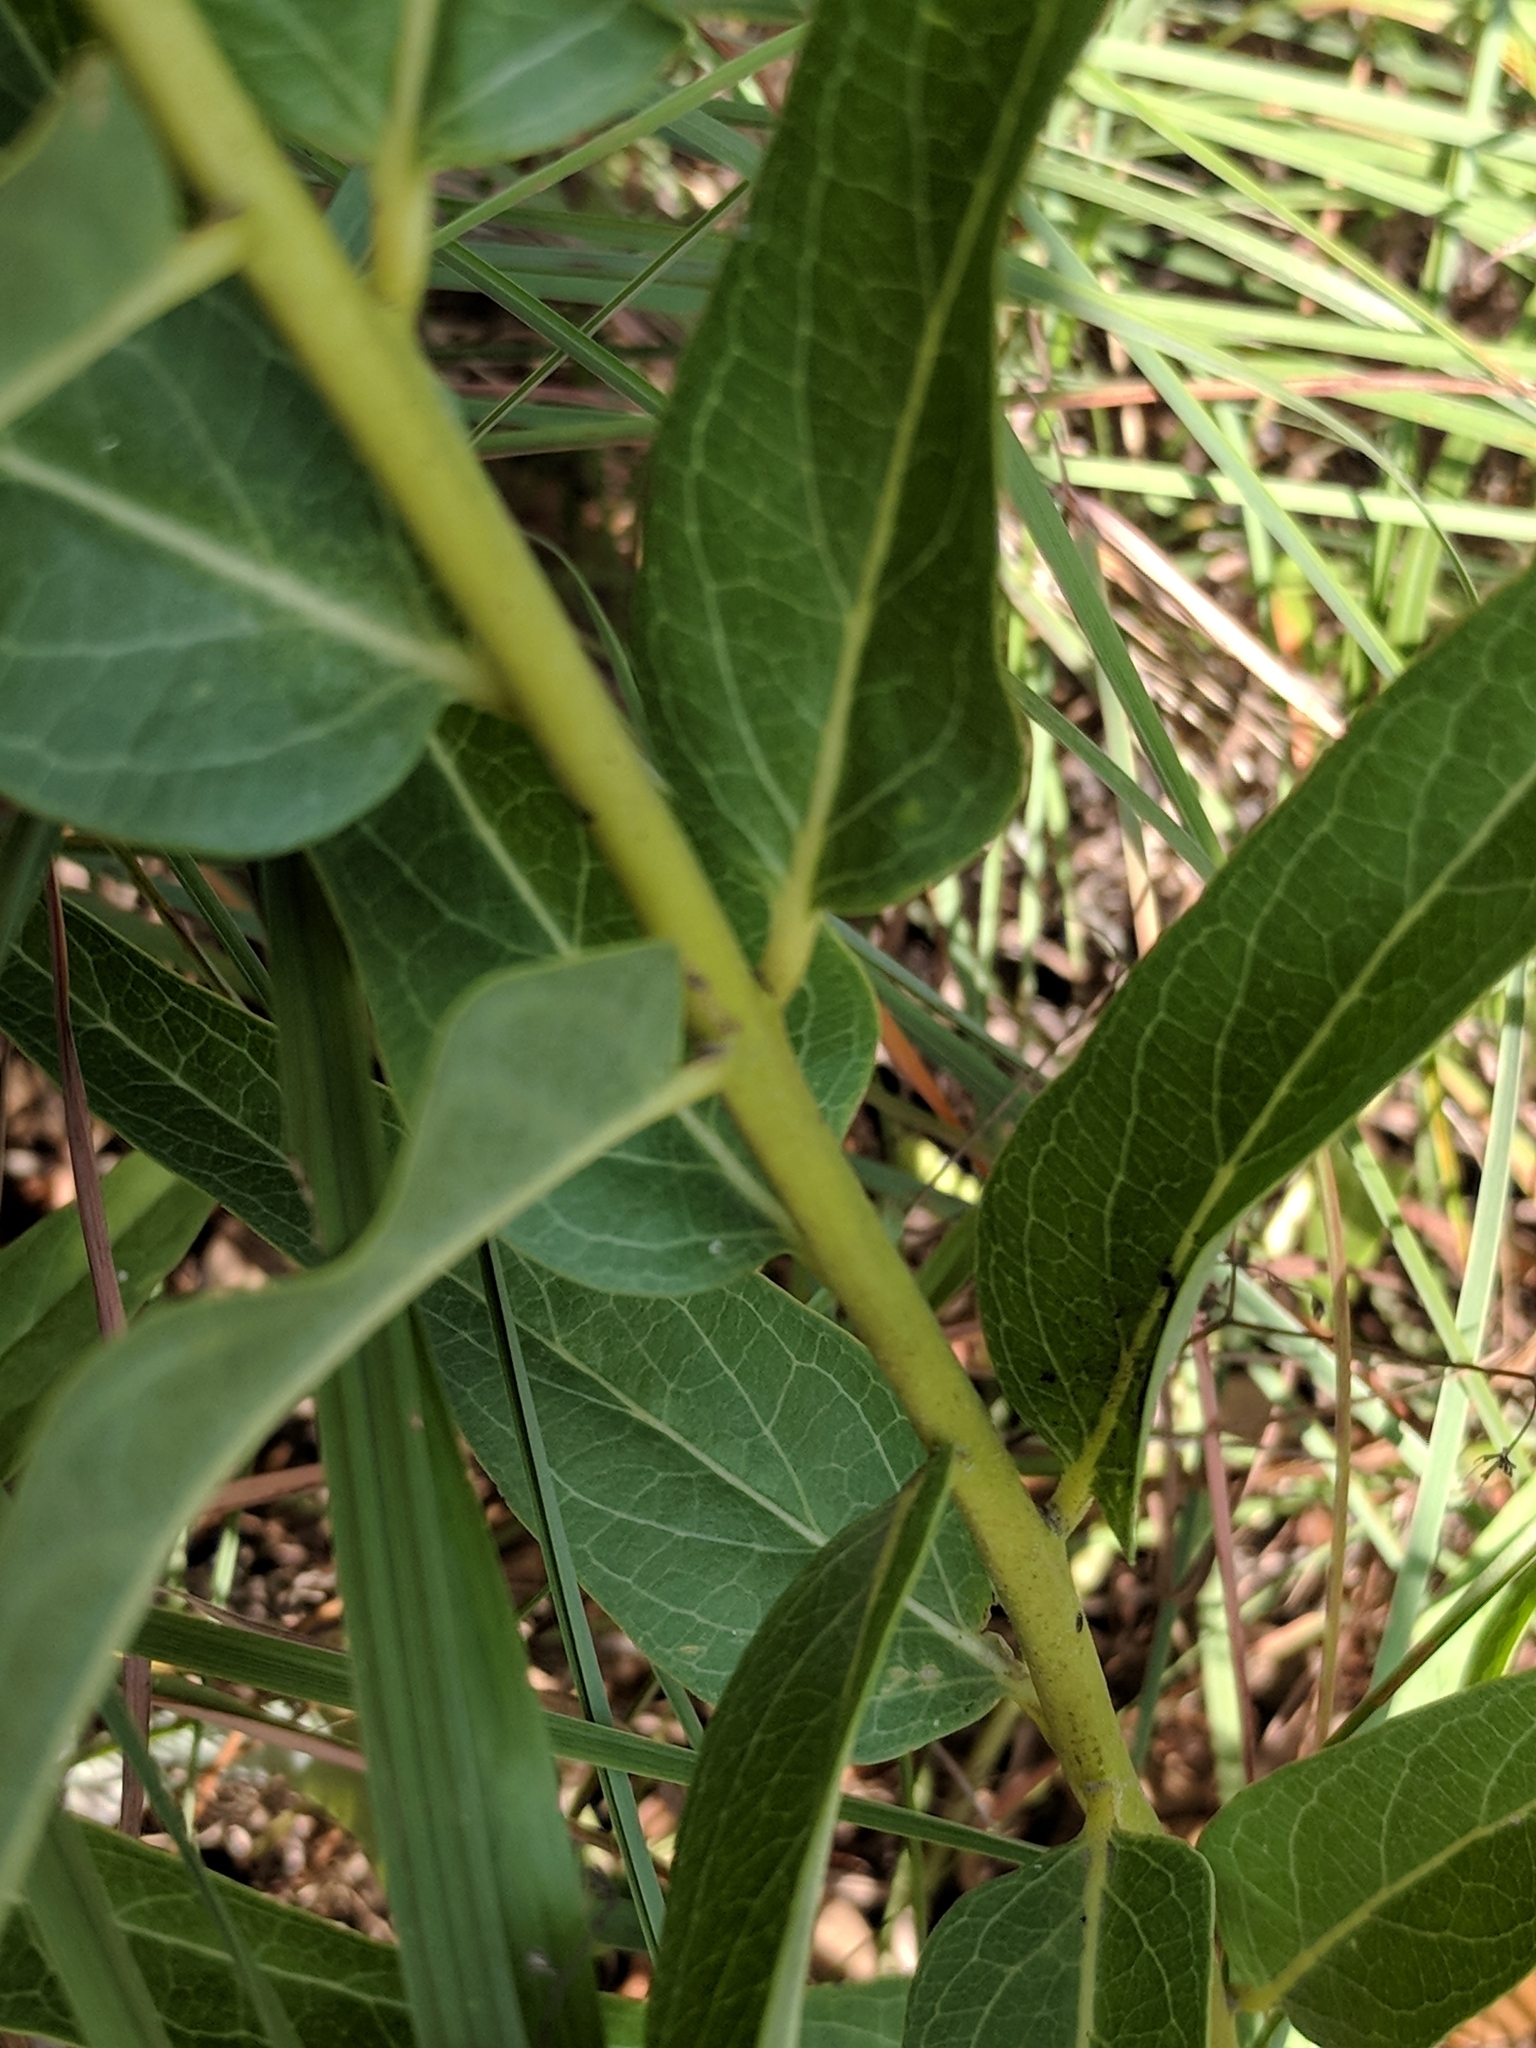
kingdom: Plantae
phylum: Tracheophyta
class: Magnoliopsida
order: Gentianales
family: Apocynaceae
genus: Asclepias
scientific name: Asclepias asperula
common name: Antelope horns
